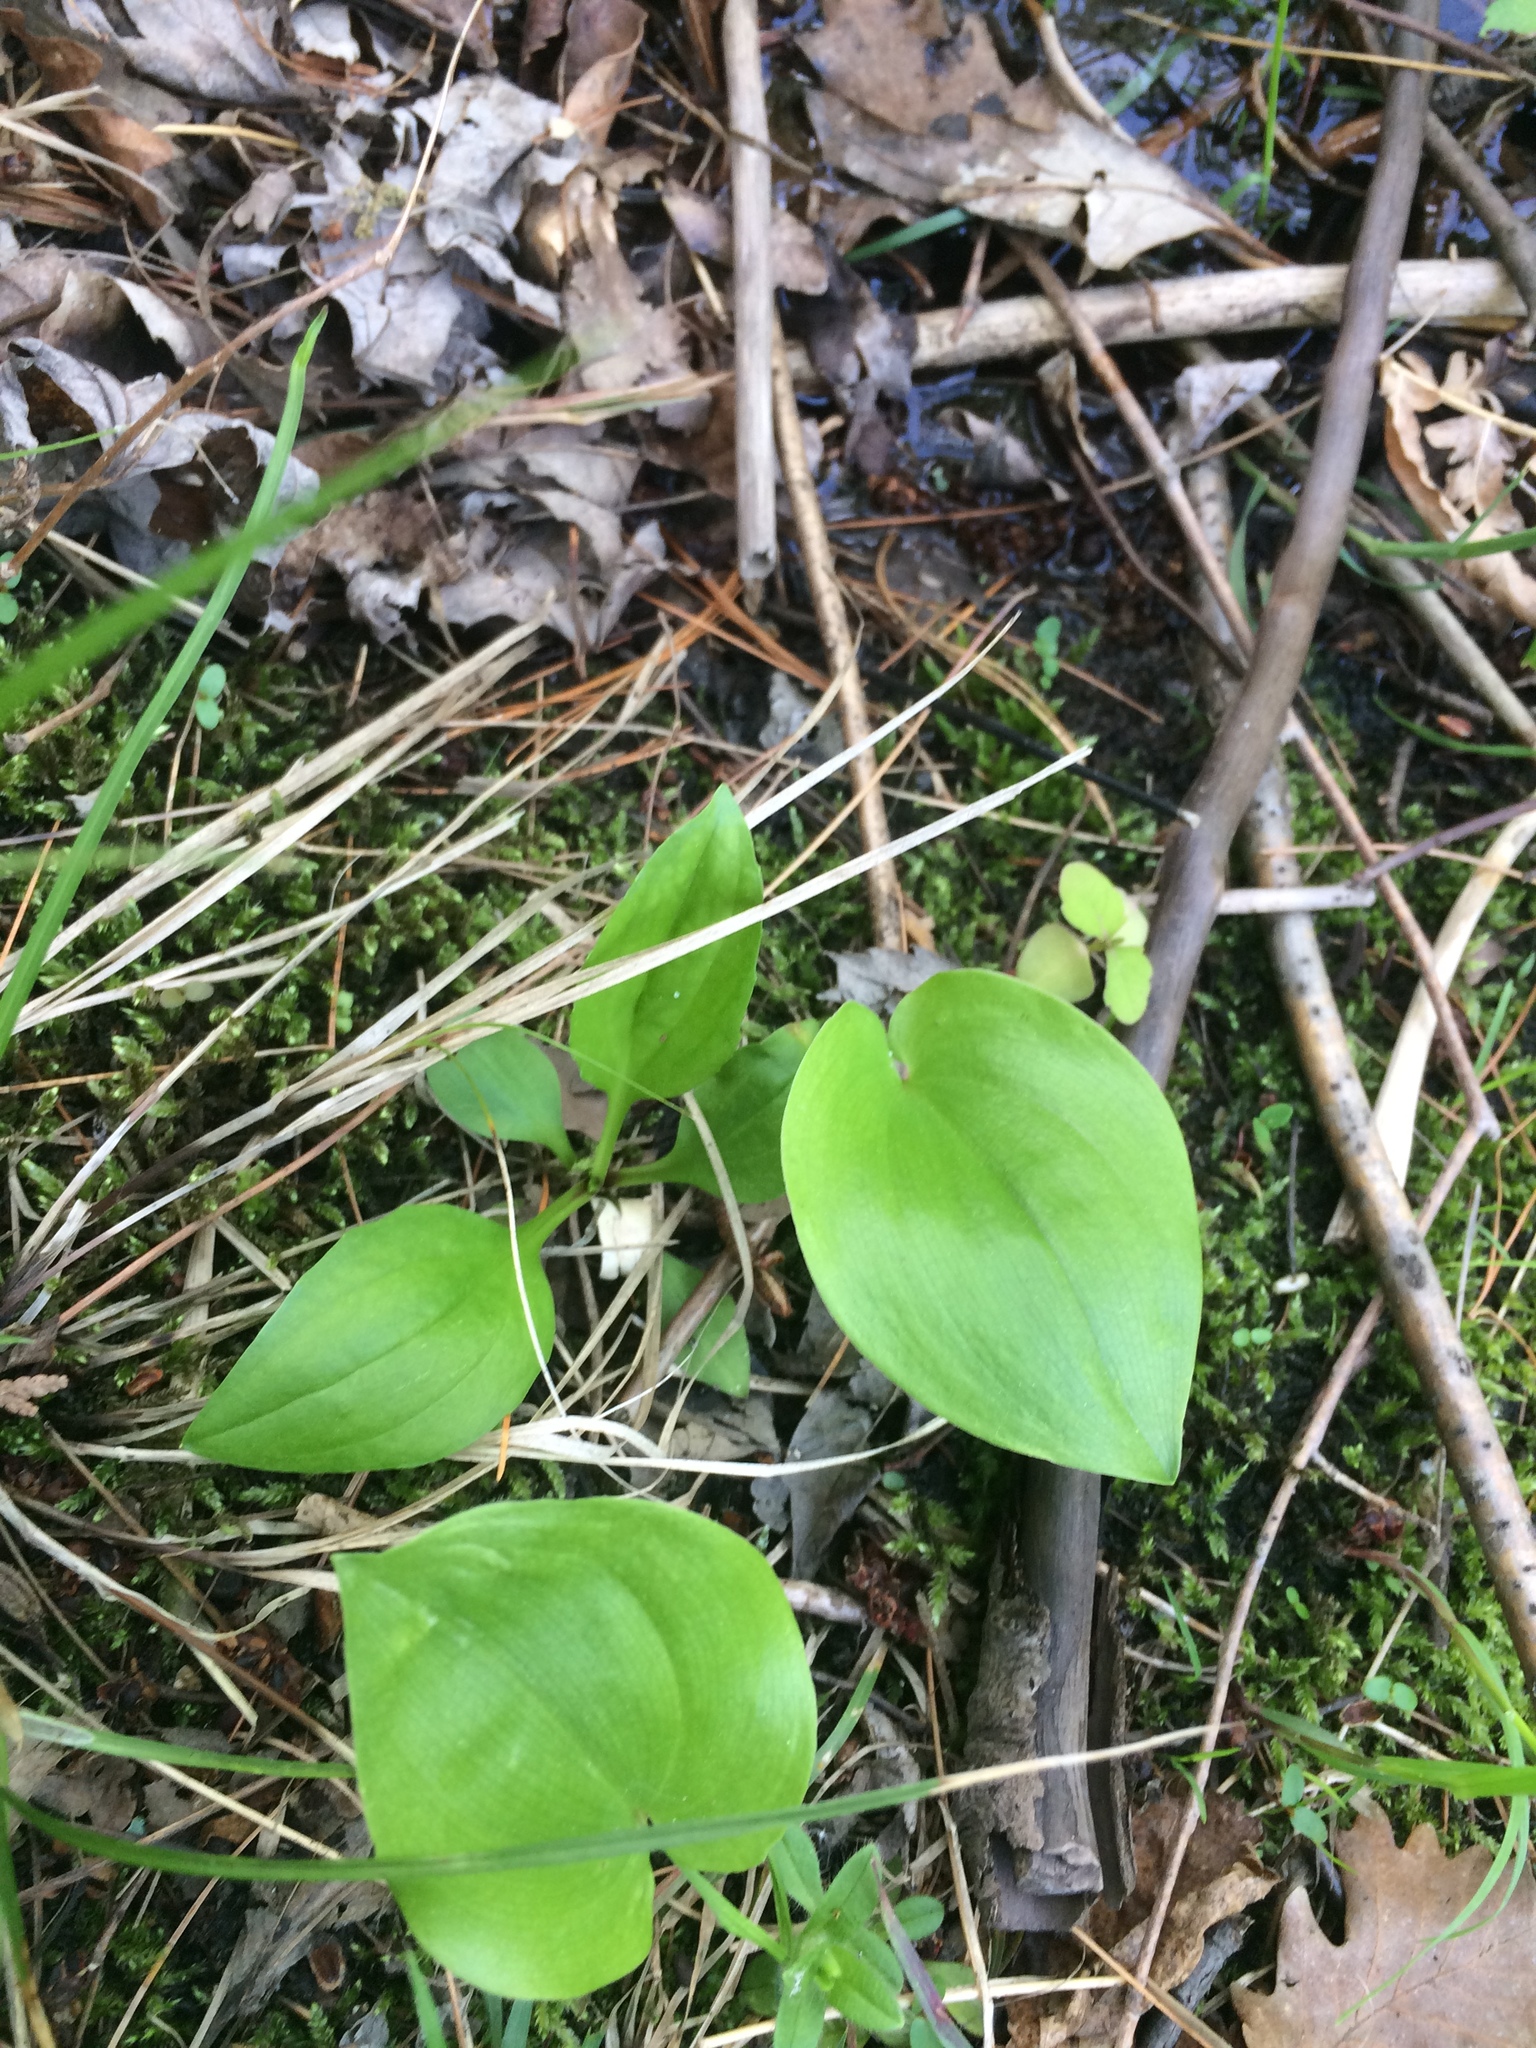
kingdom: Plantae
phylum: Tracheophyta
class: Liliopsida
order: Asparagales
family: Asparagaceae
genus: Maianthemum
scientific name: Maianthemum canadense
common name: False lily-of-the-valley
